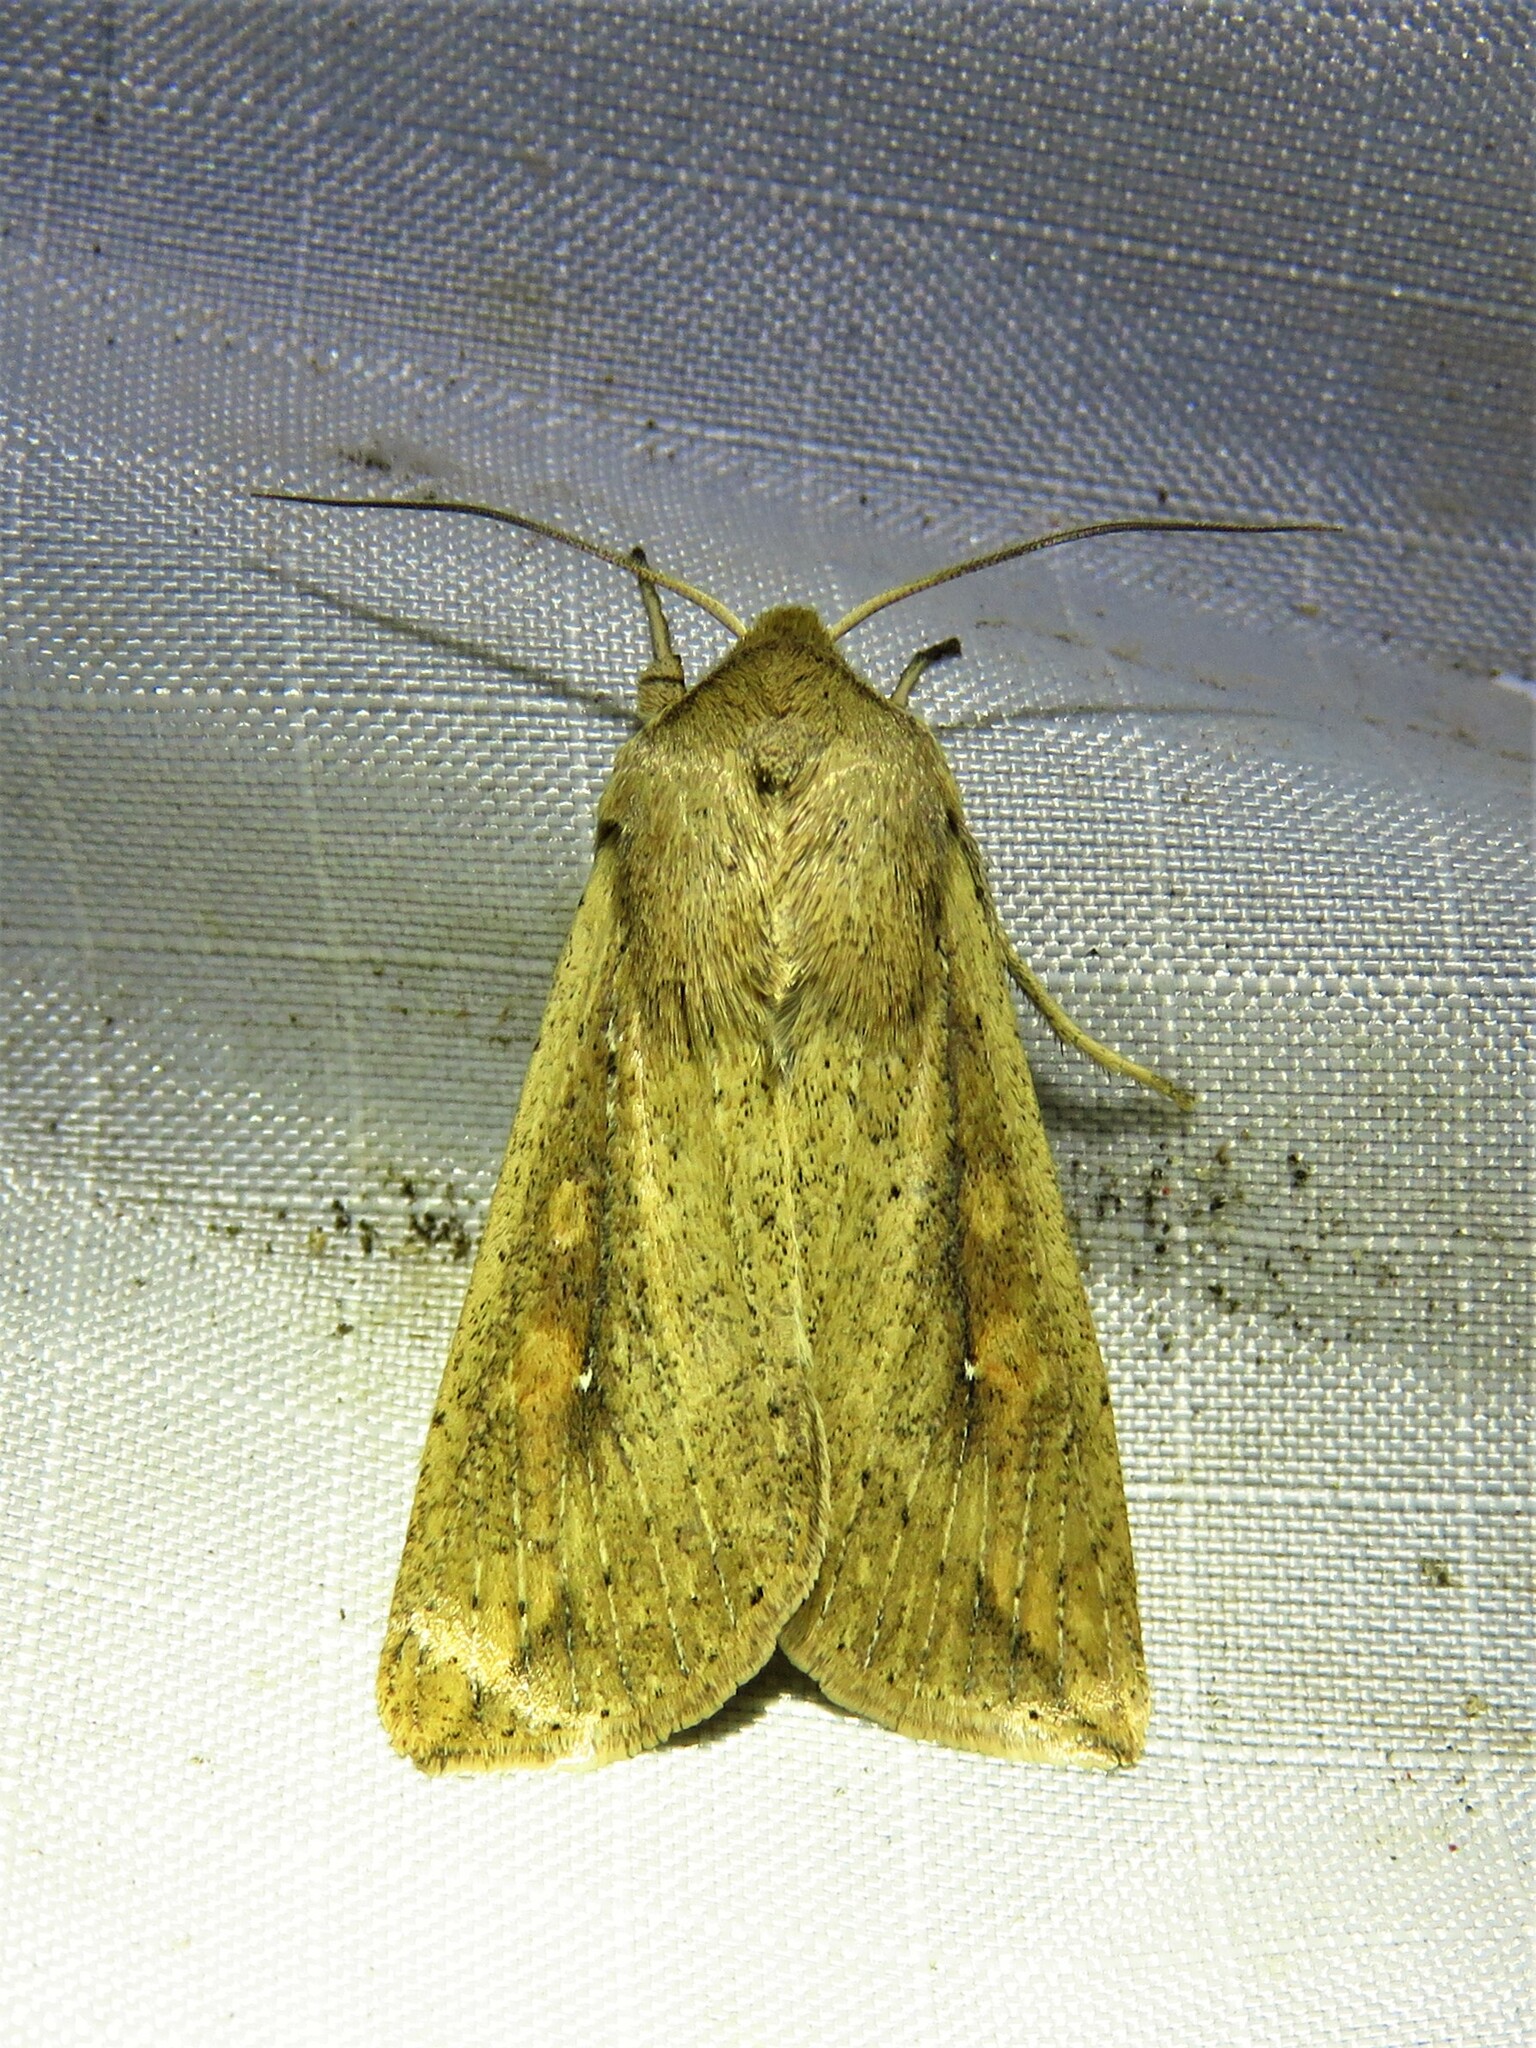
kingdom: Animalia
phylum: Arthropoda
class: Insecta
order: Lepidoptera
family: Noctuidae
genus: Mythimna
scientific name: Mythimna unipuncta
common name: White-speck
